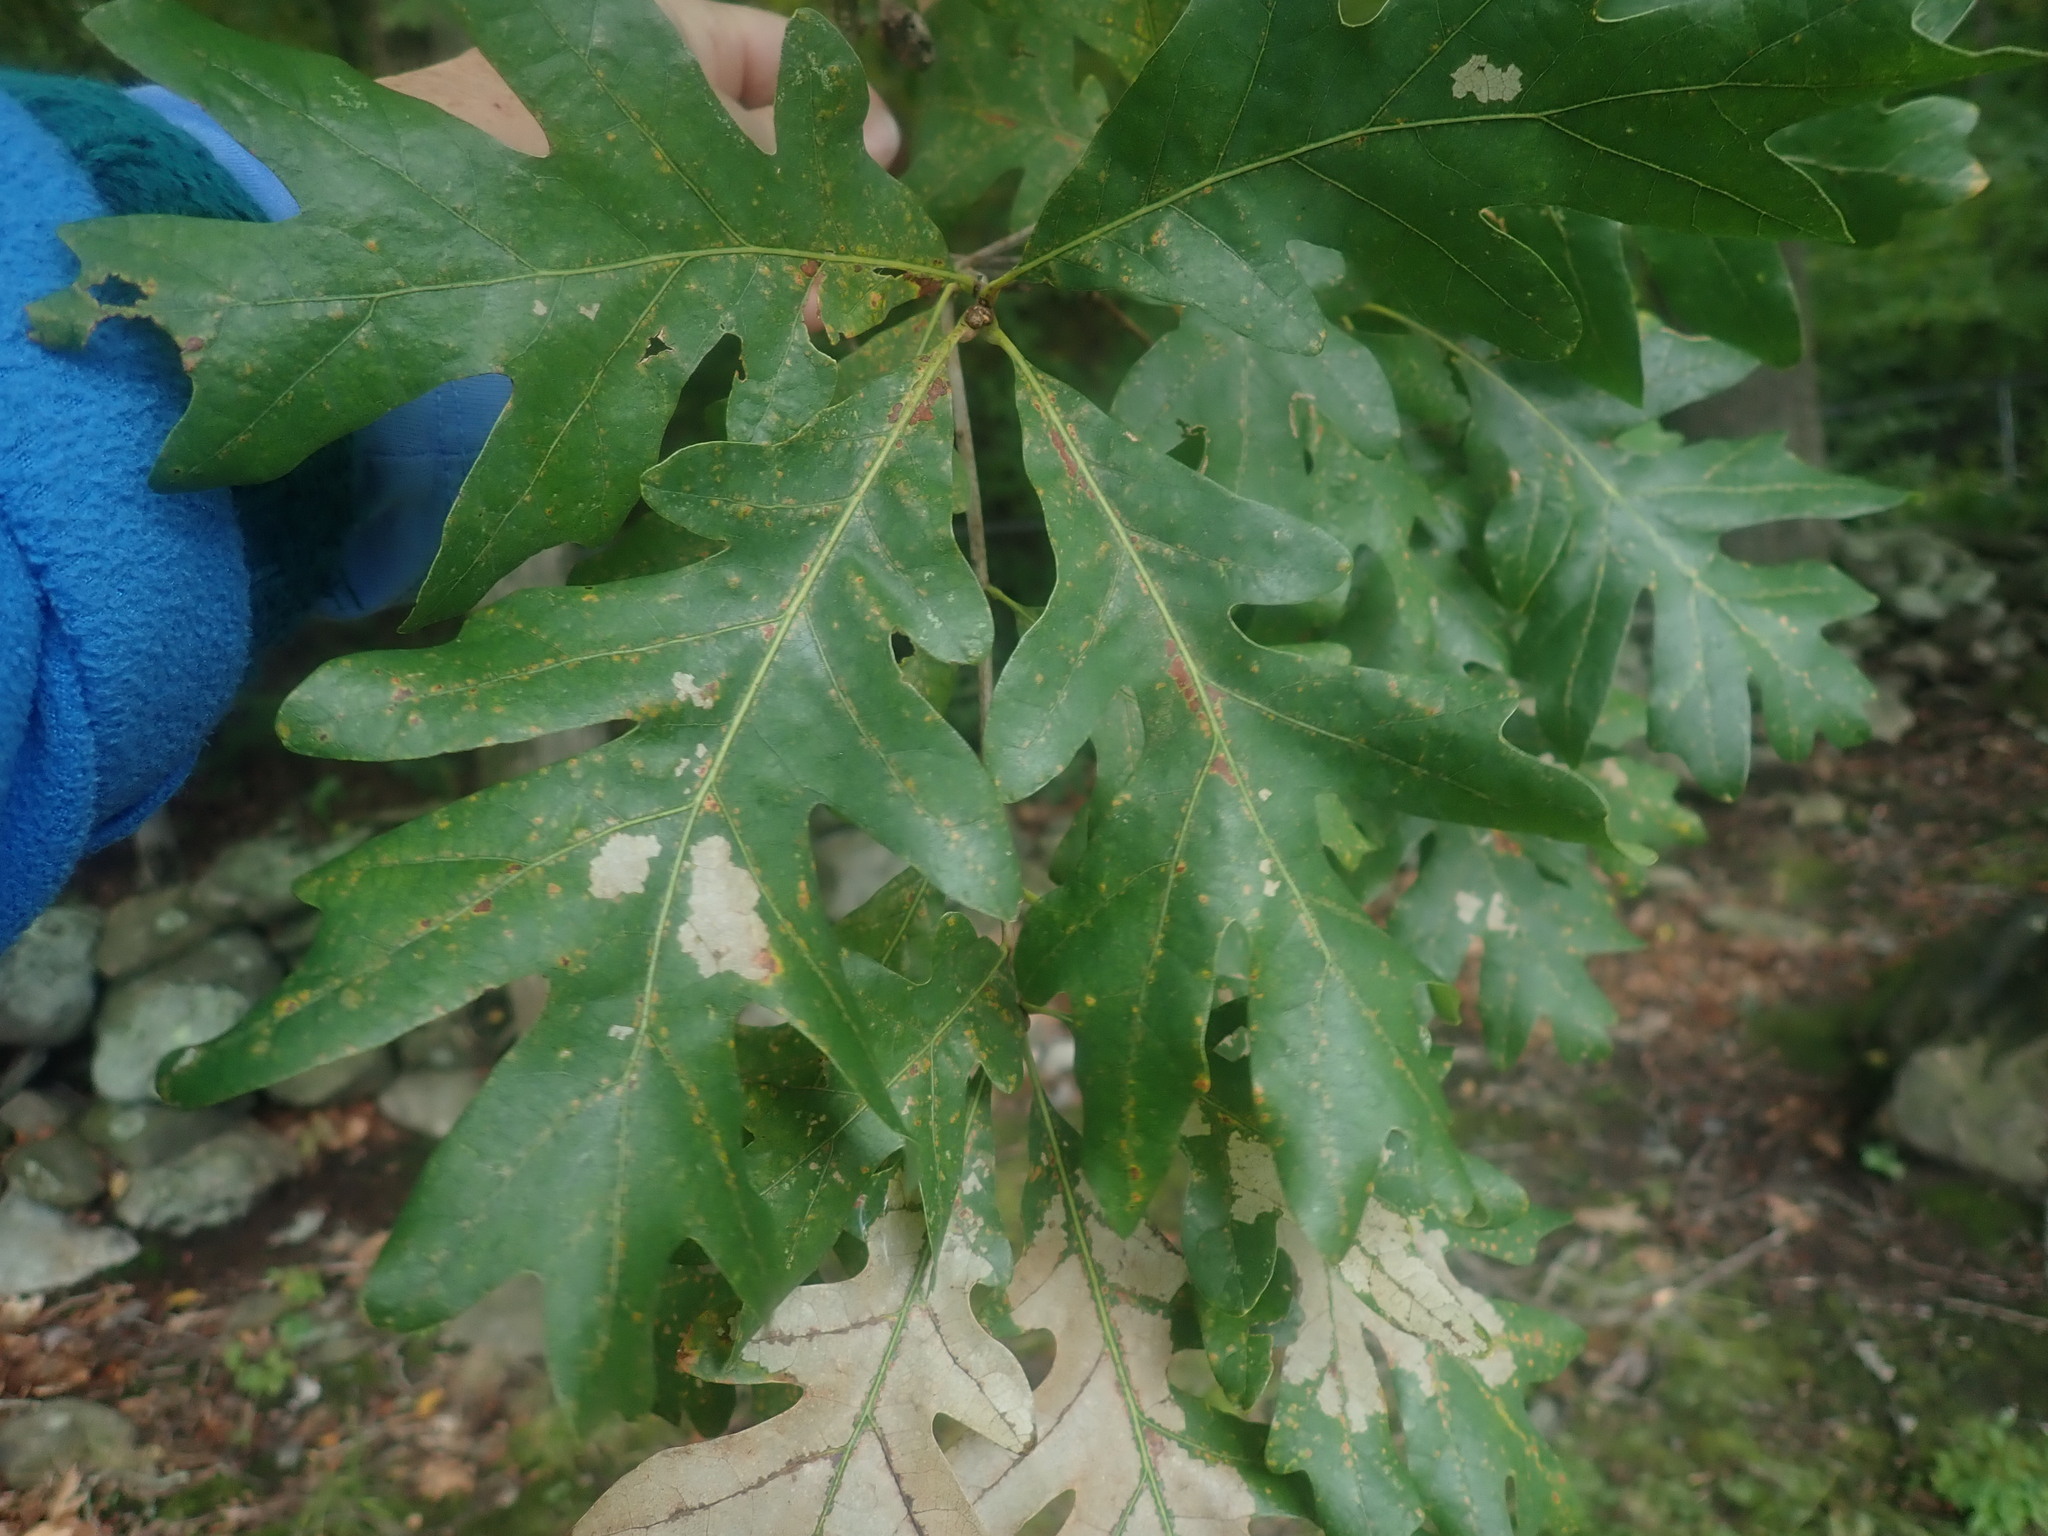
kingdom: Plantae
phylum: Tracheophyta
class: Magnoliopsida
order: Fagales
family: Fagaceae
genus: Quercus
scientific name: Quercus alba
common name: White oak
